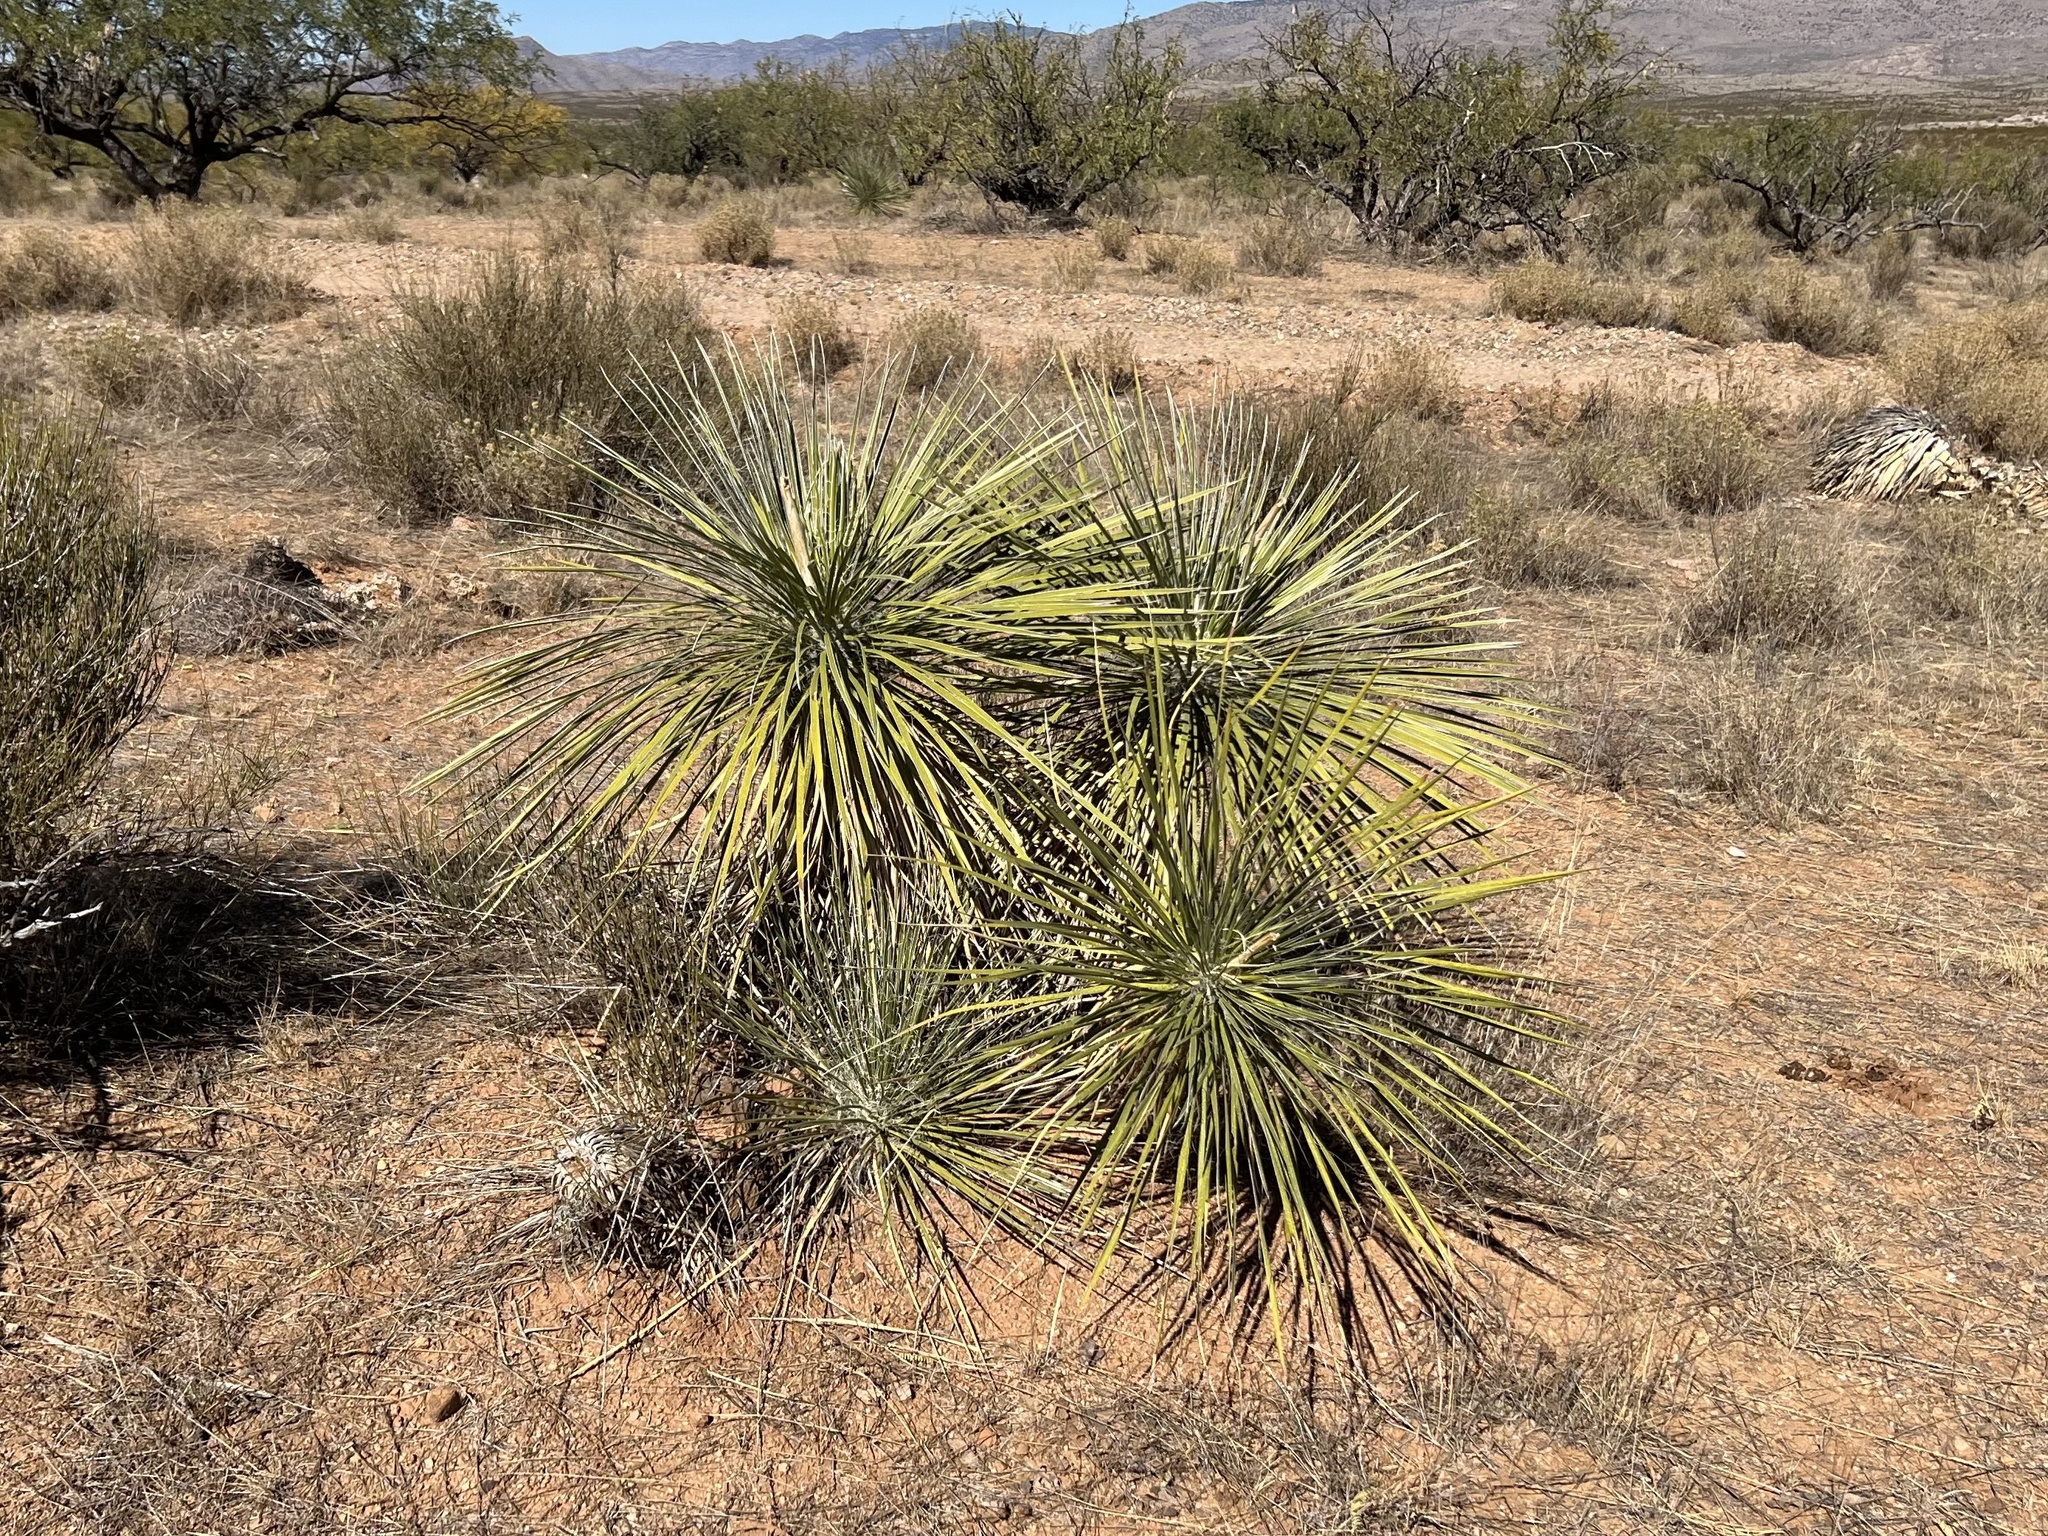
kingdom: Plantae
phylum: Tracheophyta
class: Liliopsida
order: Asparagales
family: Asparagaceae
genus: Yucca
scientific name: Yucca elata
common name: Palmella
